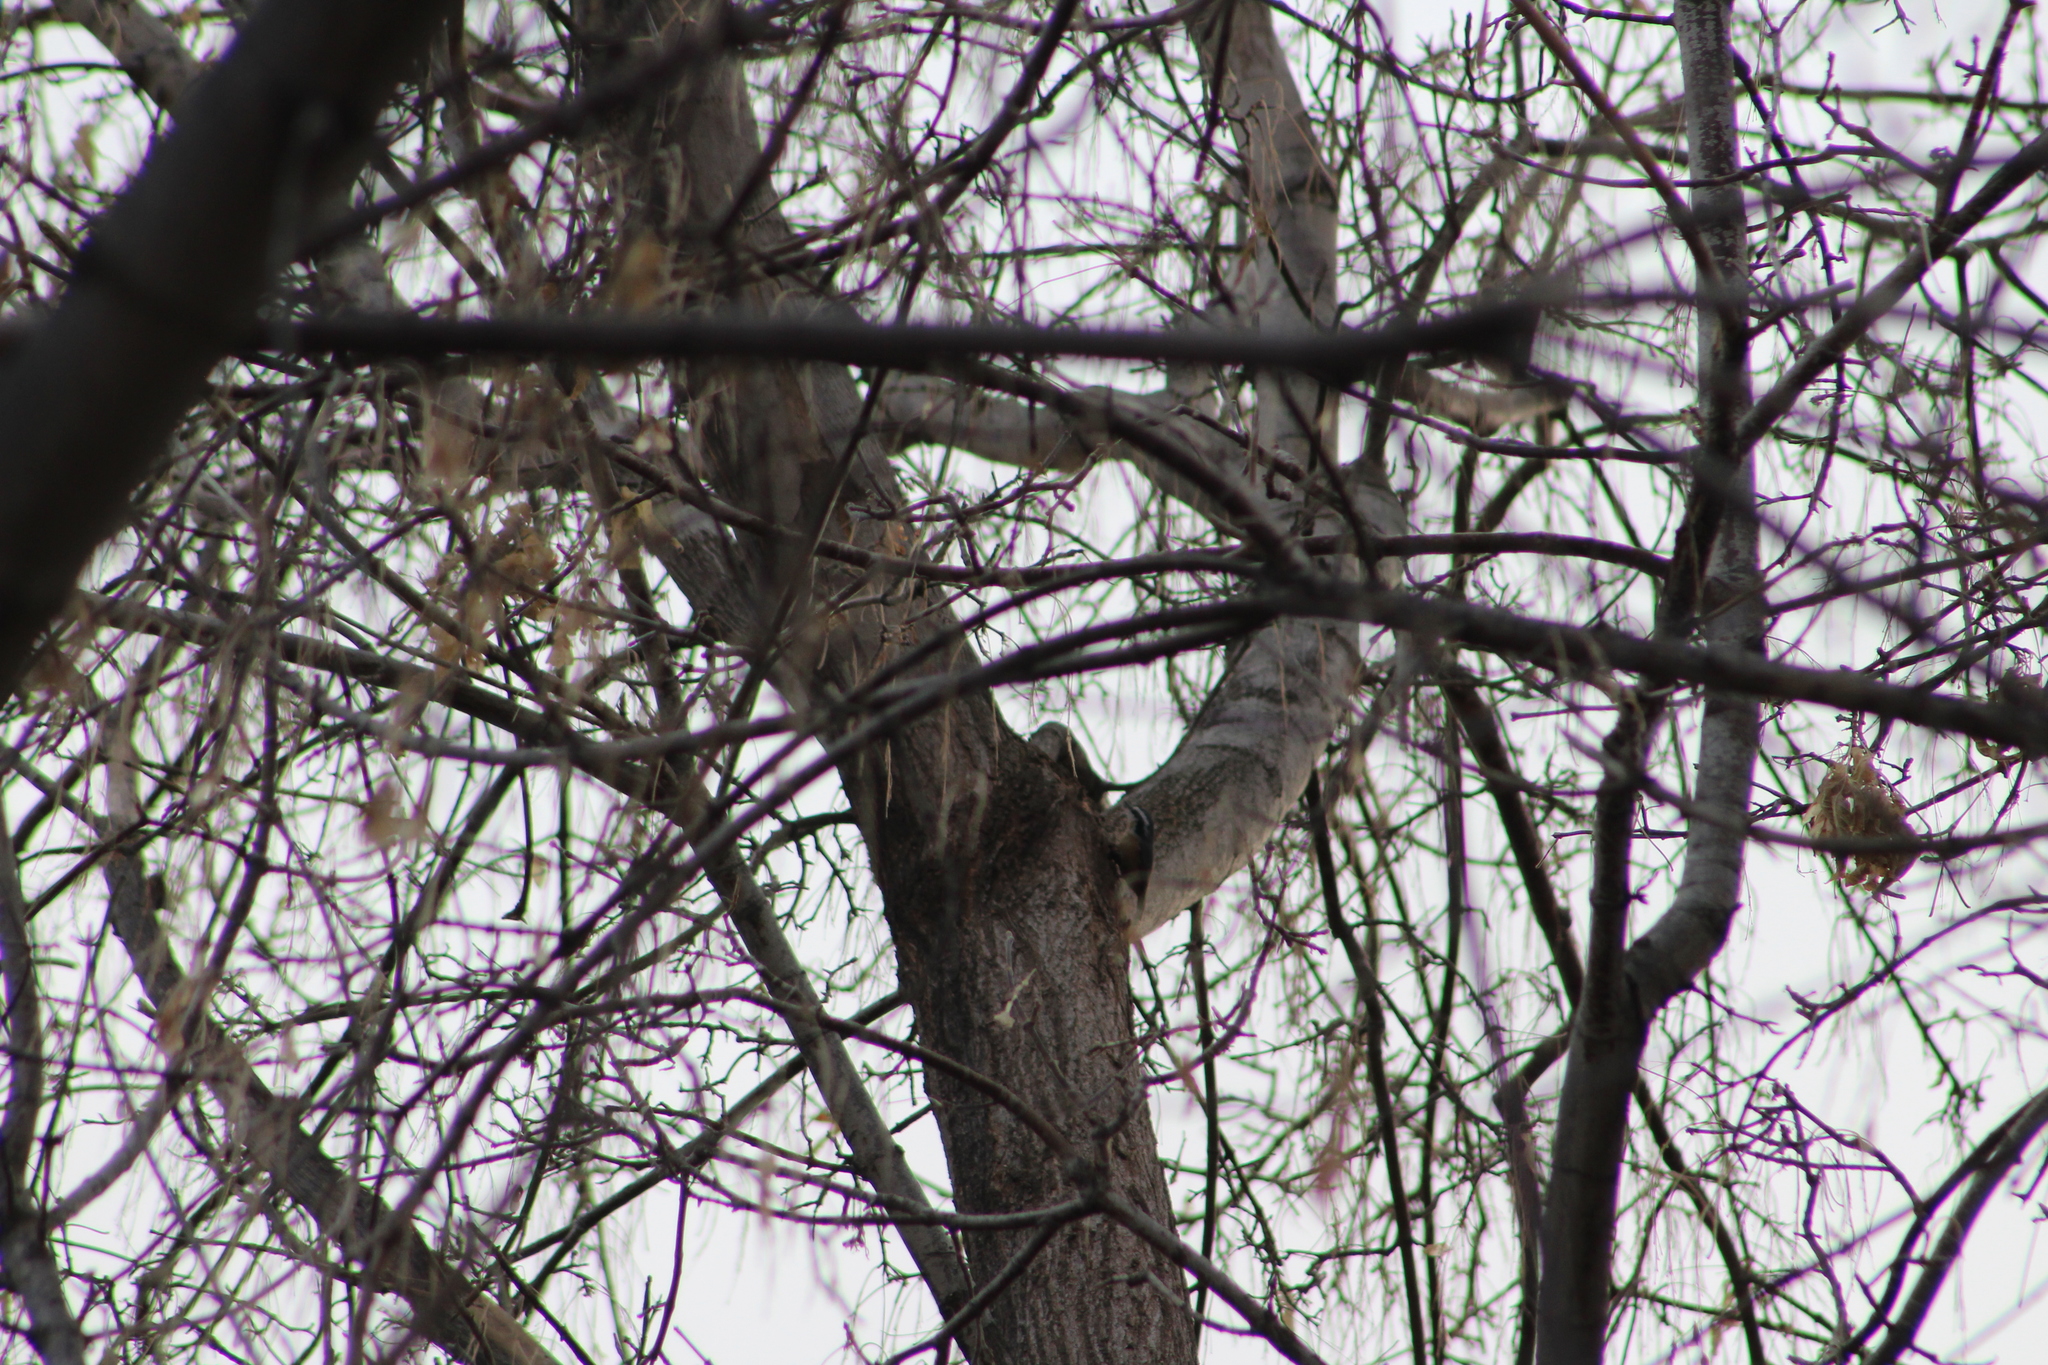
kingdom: Animalia
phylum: Chordata
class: Aves
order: Passeriformes
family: Sittidae
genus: Sitta
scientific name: Sitta canadensis
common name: Red-breasted nuthatch
